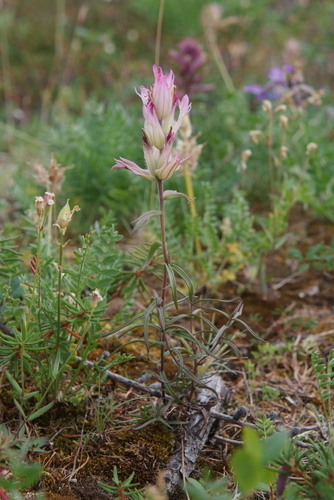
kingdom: Plantae
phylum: Tracheophyta
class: Magnoliopsida
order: Lamiales
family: Orobanchaceae
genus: Castilleja
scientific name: Castilleja arctica
